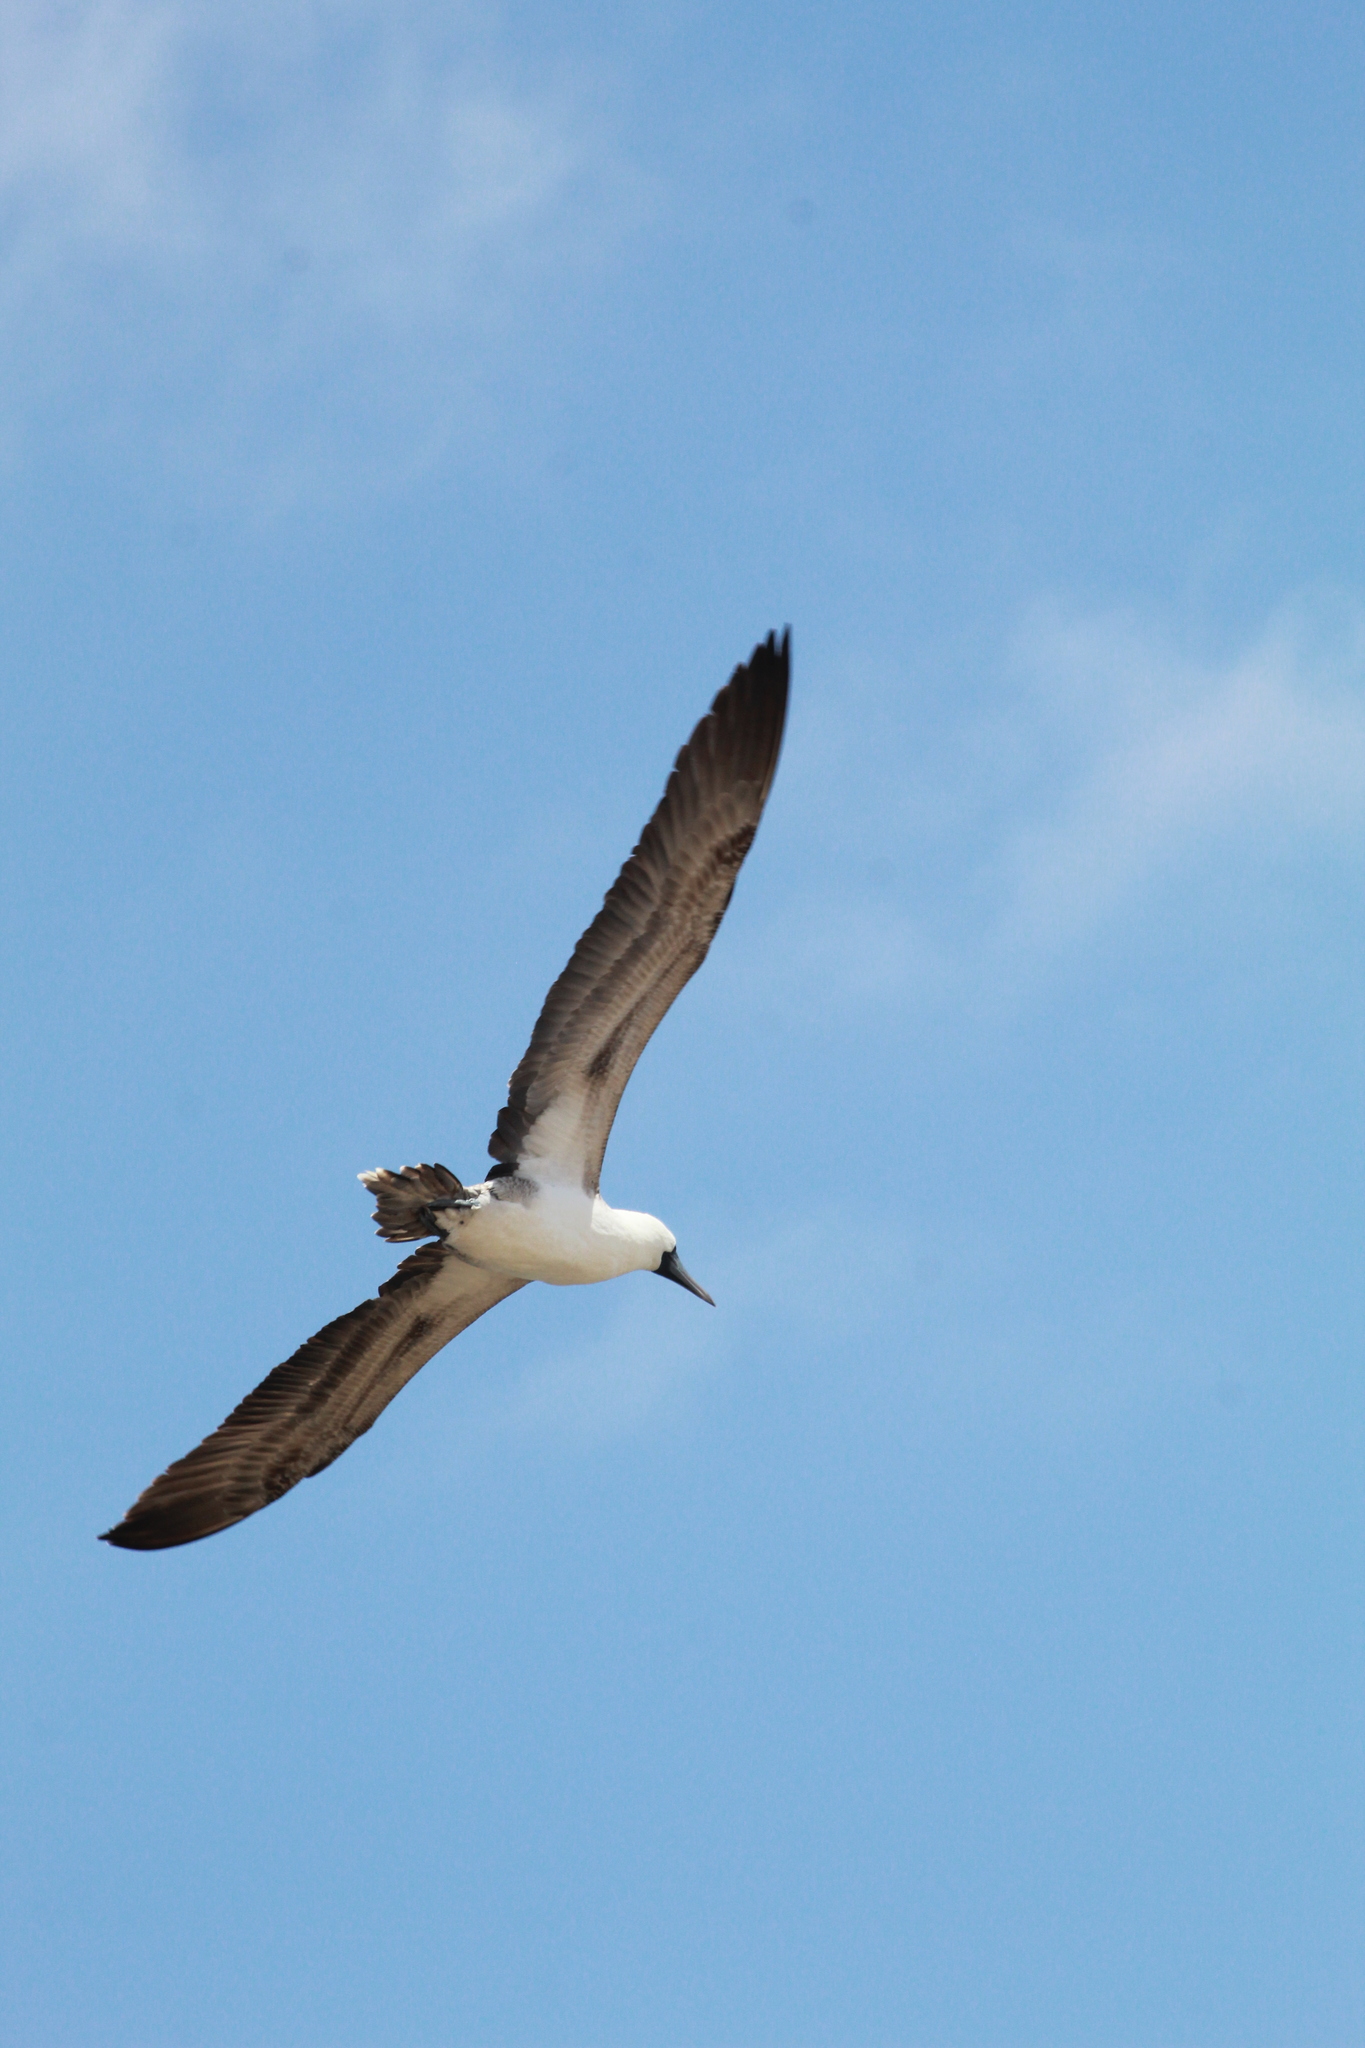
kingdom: Animalia
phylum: Chordata
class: Aves
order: Suliformes
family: Sulidae
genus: Sula
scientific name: Sula variegata
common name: Peruvian booby
